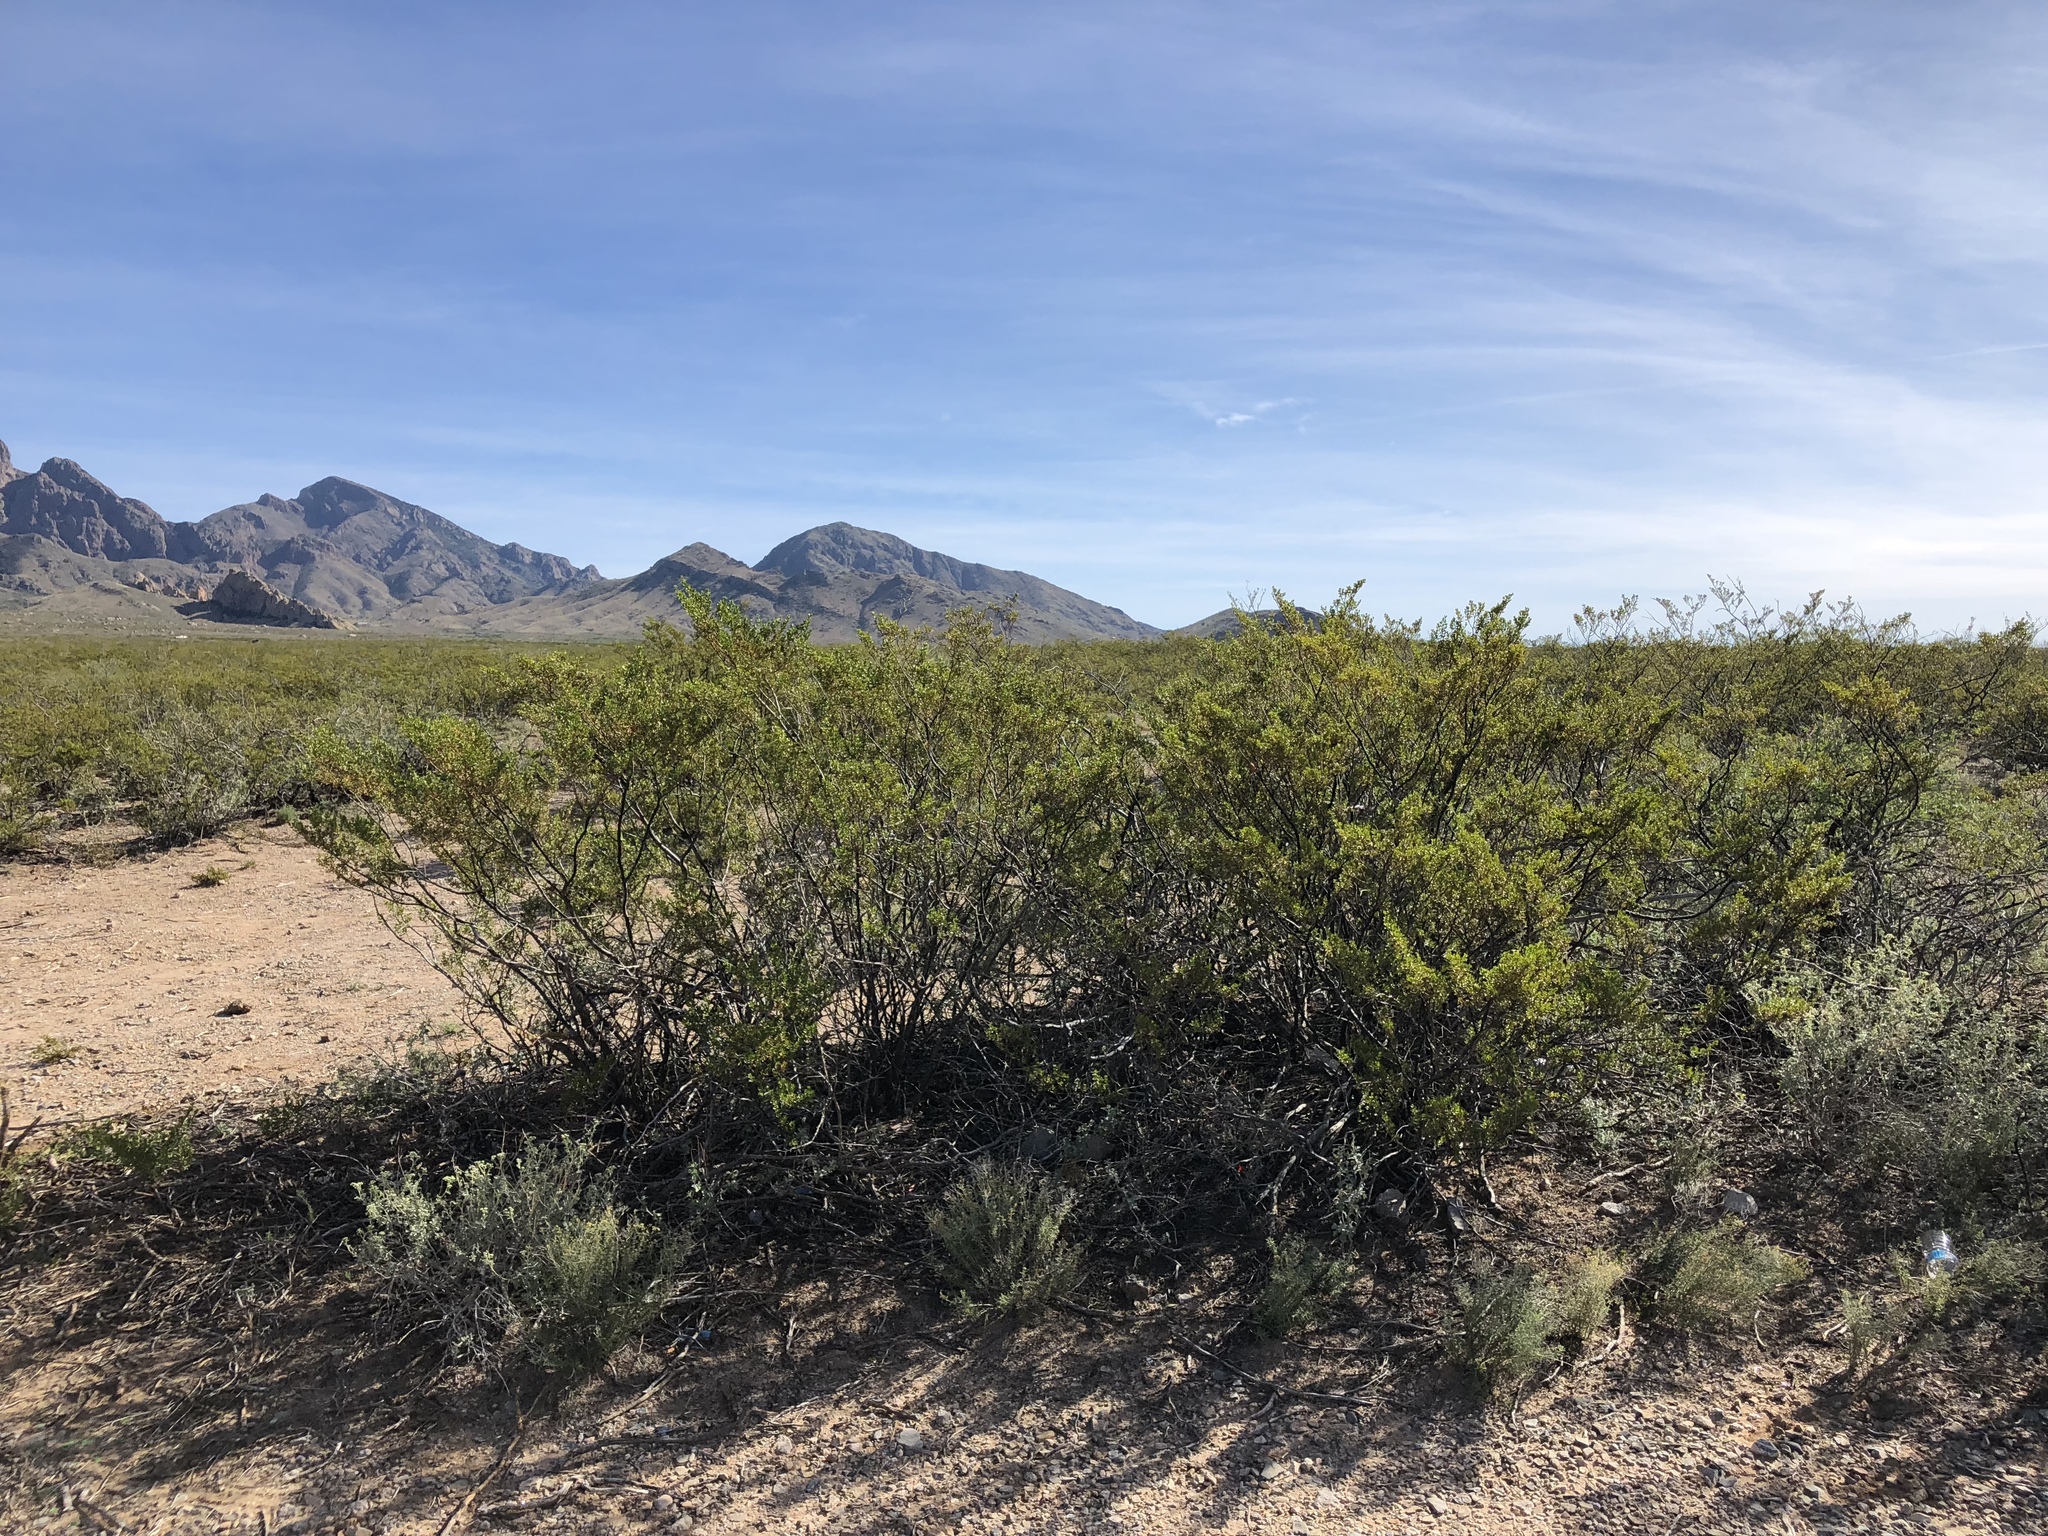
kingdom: Plantae
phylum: Tracheophyta
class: Magnoliopsida
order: Zygophyllales
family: Zygophyllaceae
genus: Larrea
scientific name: Larrea tridentata
